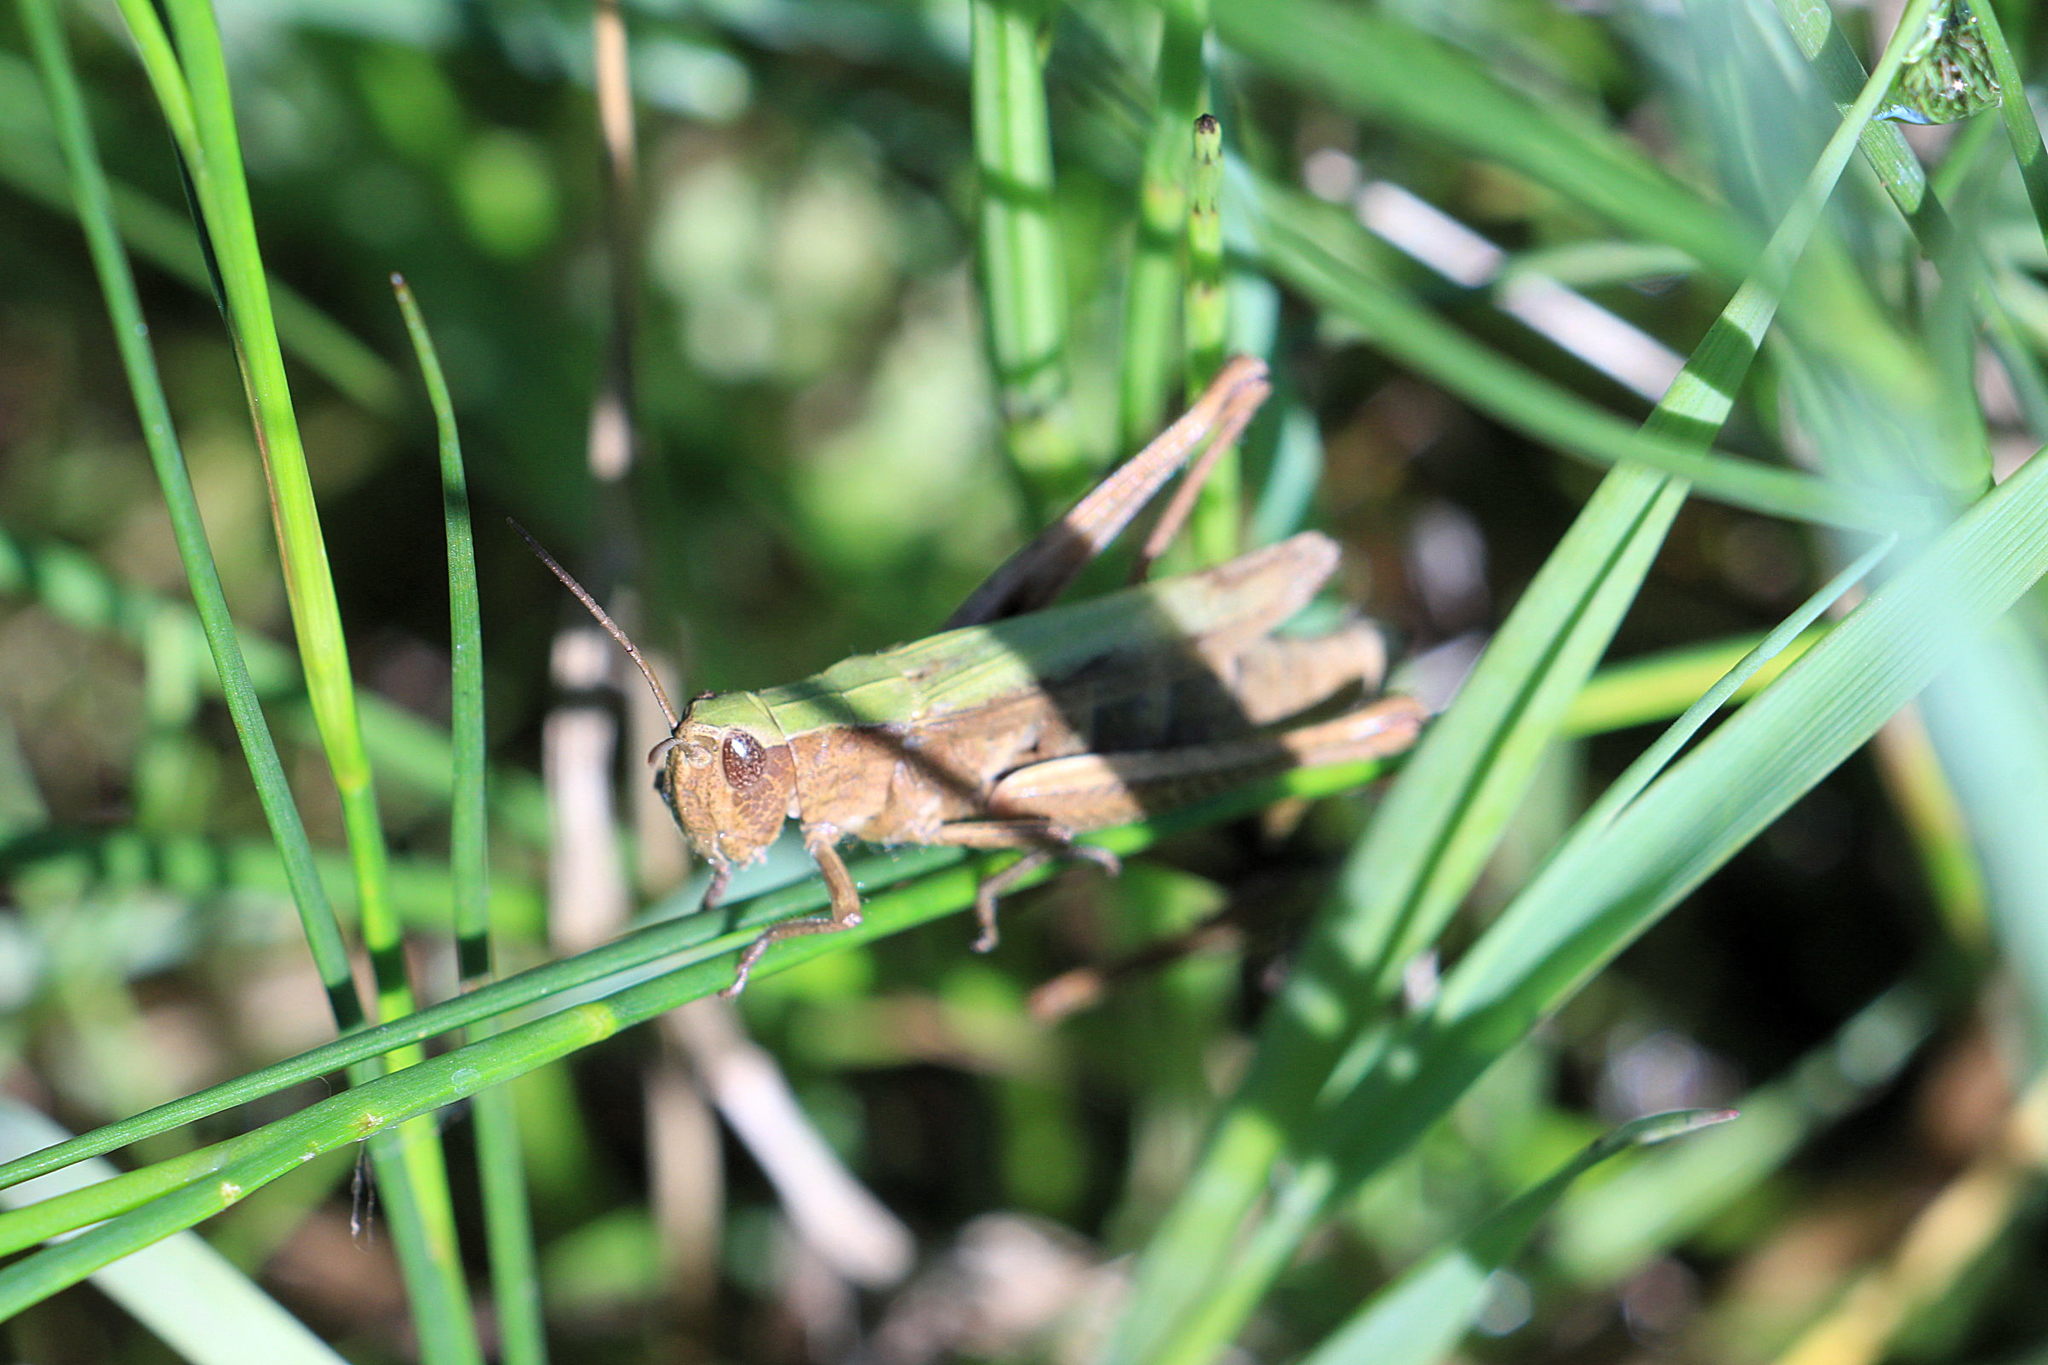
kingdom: Animalia
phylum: Arthropoda
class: Insecta
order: Orthoptera
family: Acrididae
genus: Chorthippus
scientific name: Chorthippus dorsatus
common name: Steppe grasshopper
